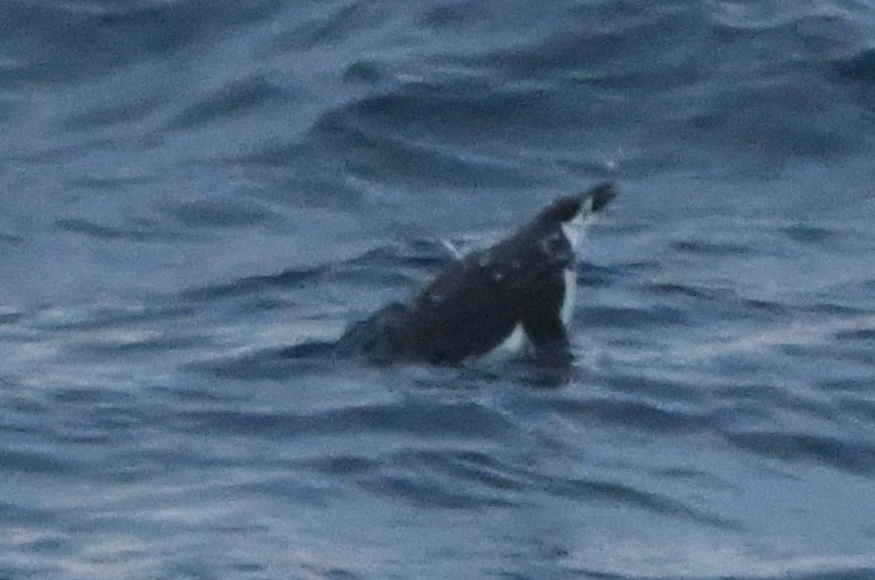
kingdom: Animalia
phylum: Chordata
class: Aves
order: Sphenisciformes
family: Spheniscidae
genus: Pygoscelis
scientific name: Pygoscelis antarcticus
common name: Chinstrap penguin
